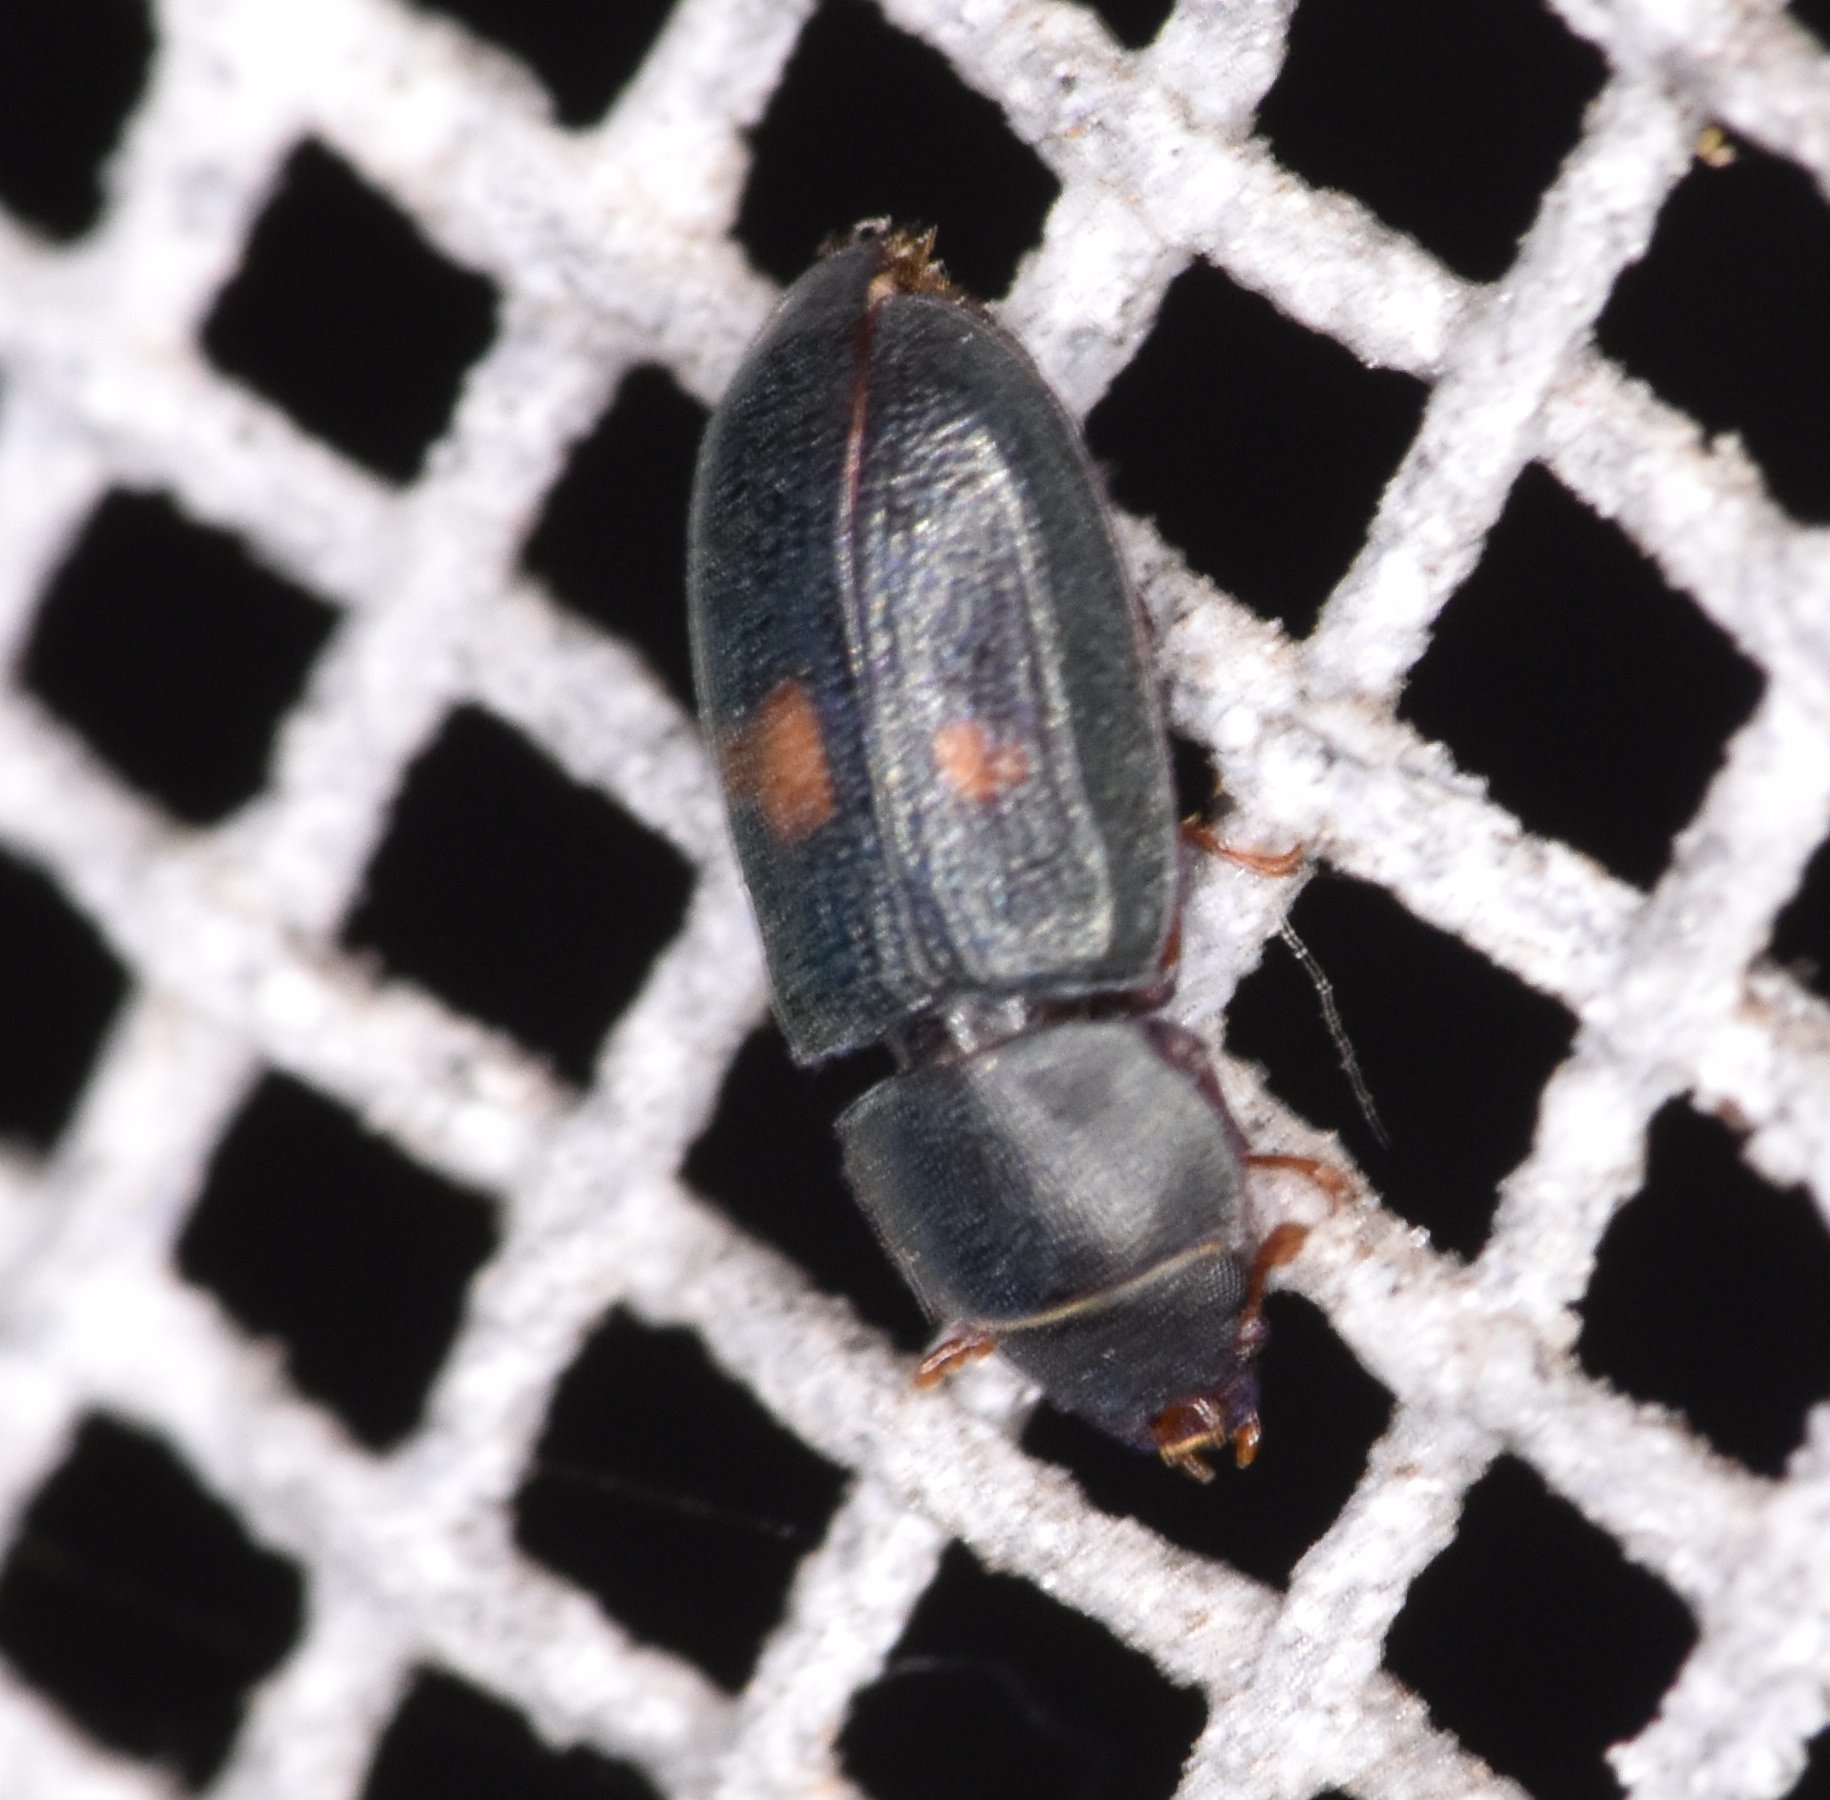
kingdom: Animalia
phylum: Arthropoda
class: Insecta
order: Coleoptera
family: Trogossitidae
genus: Tenebroides
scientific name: Tenebroides
